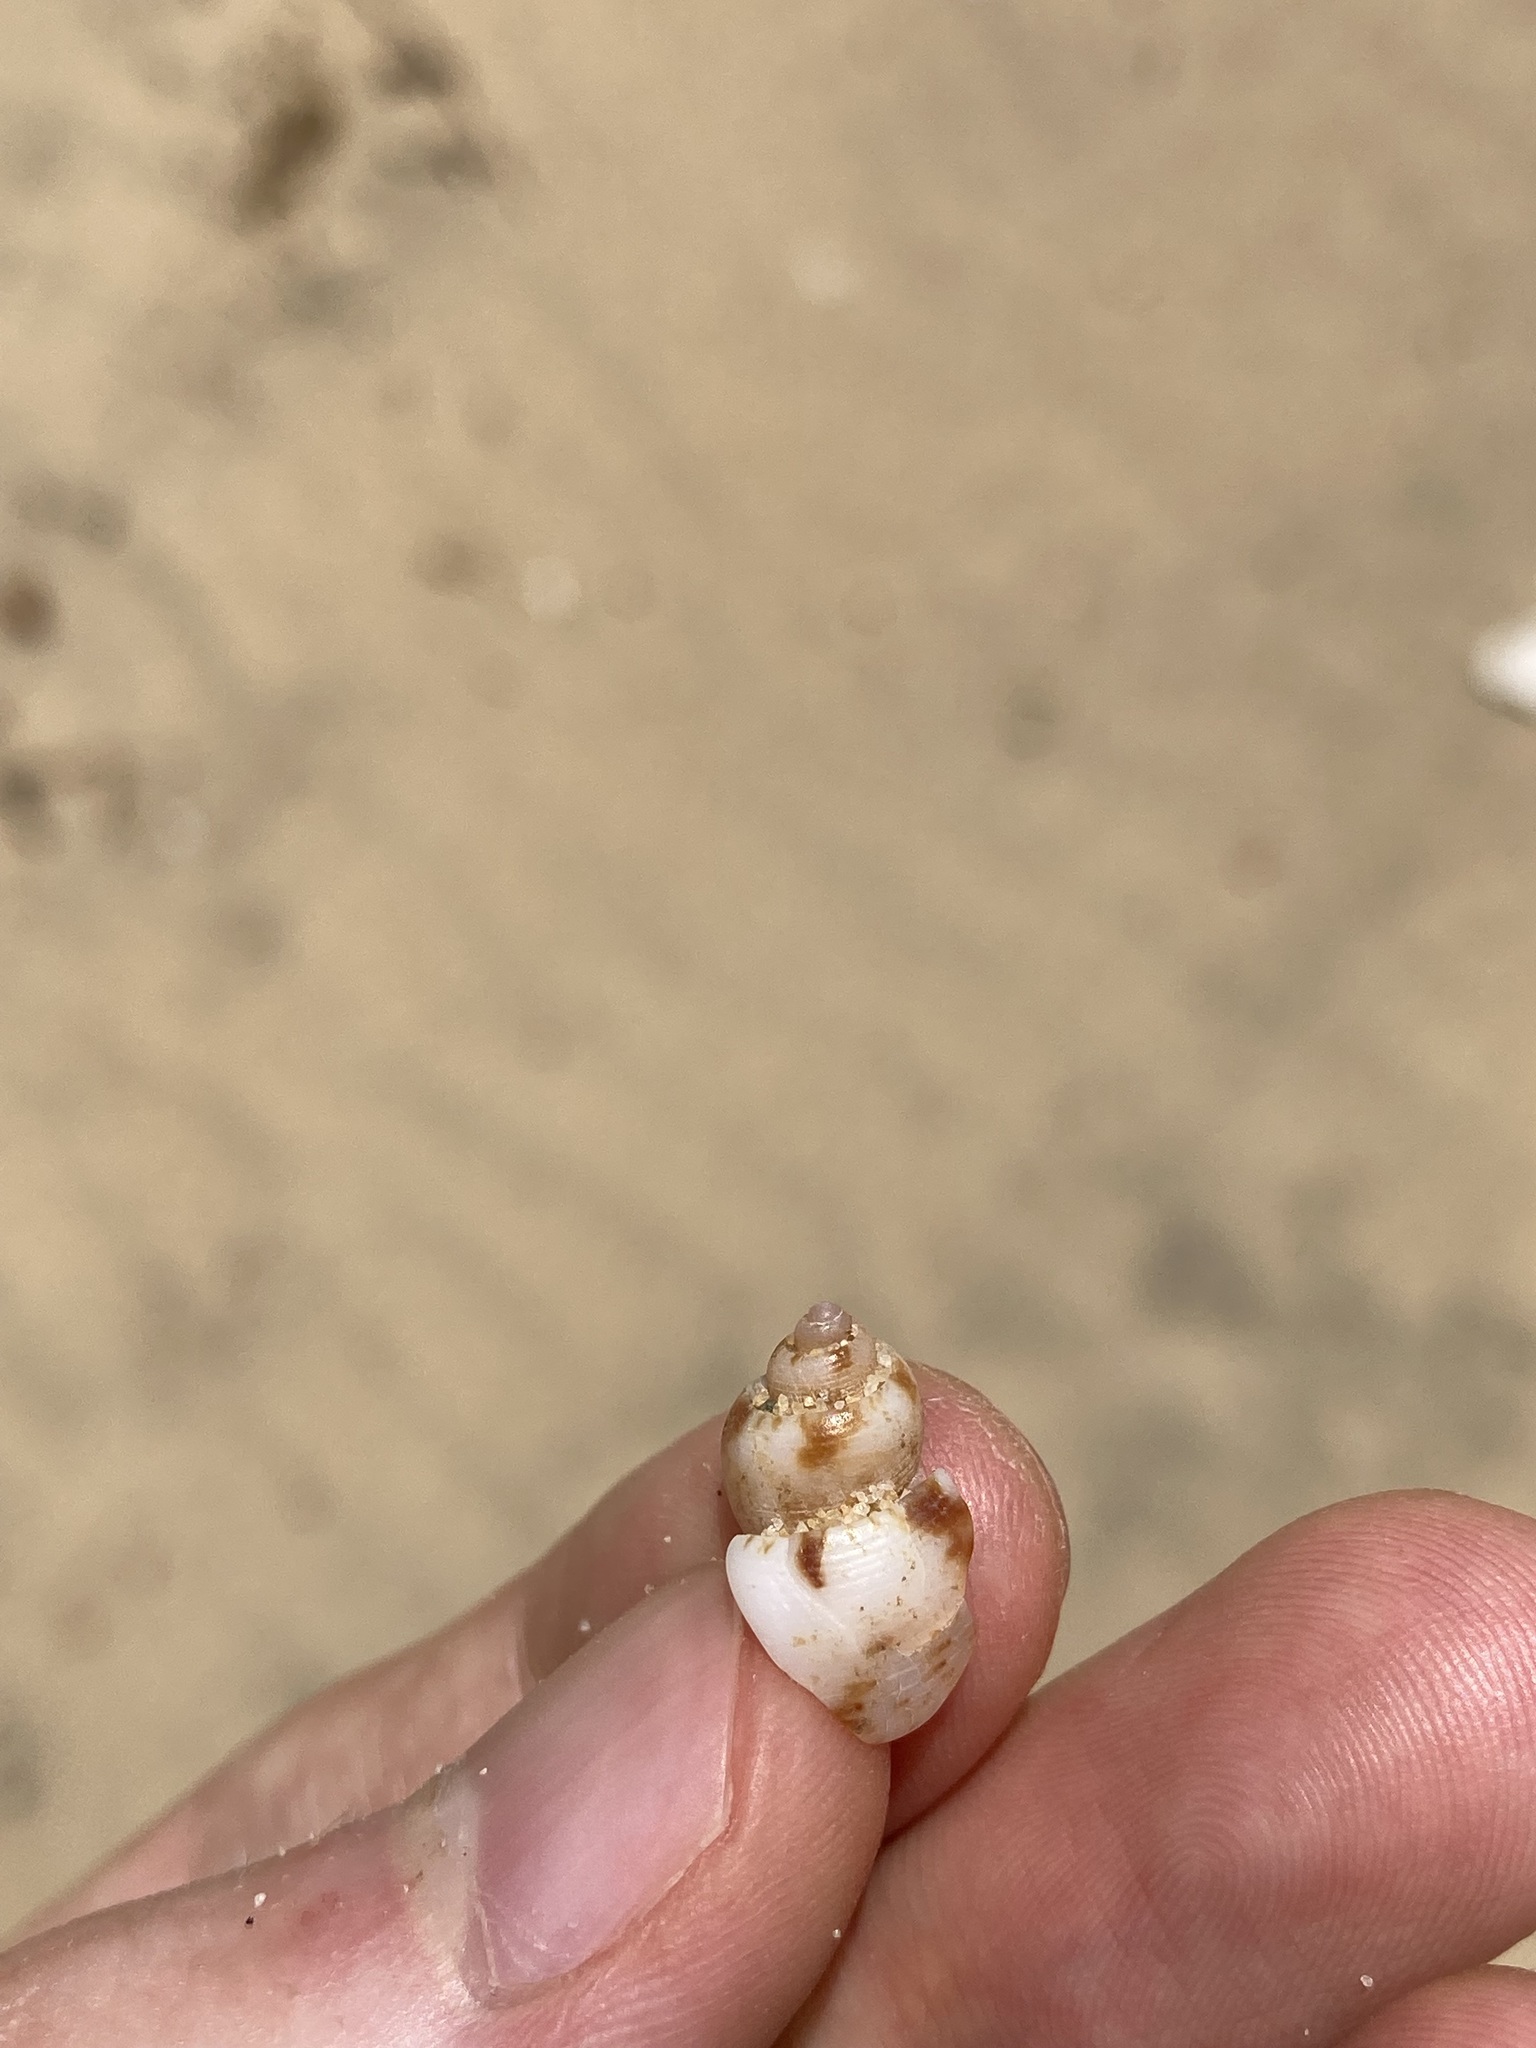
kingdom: Animalia
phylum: Mollusca
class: Gastropoda
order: Neogastropoda
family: Pseudolividae
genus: Zemira
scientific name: Zemira australis
